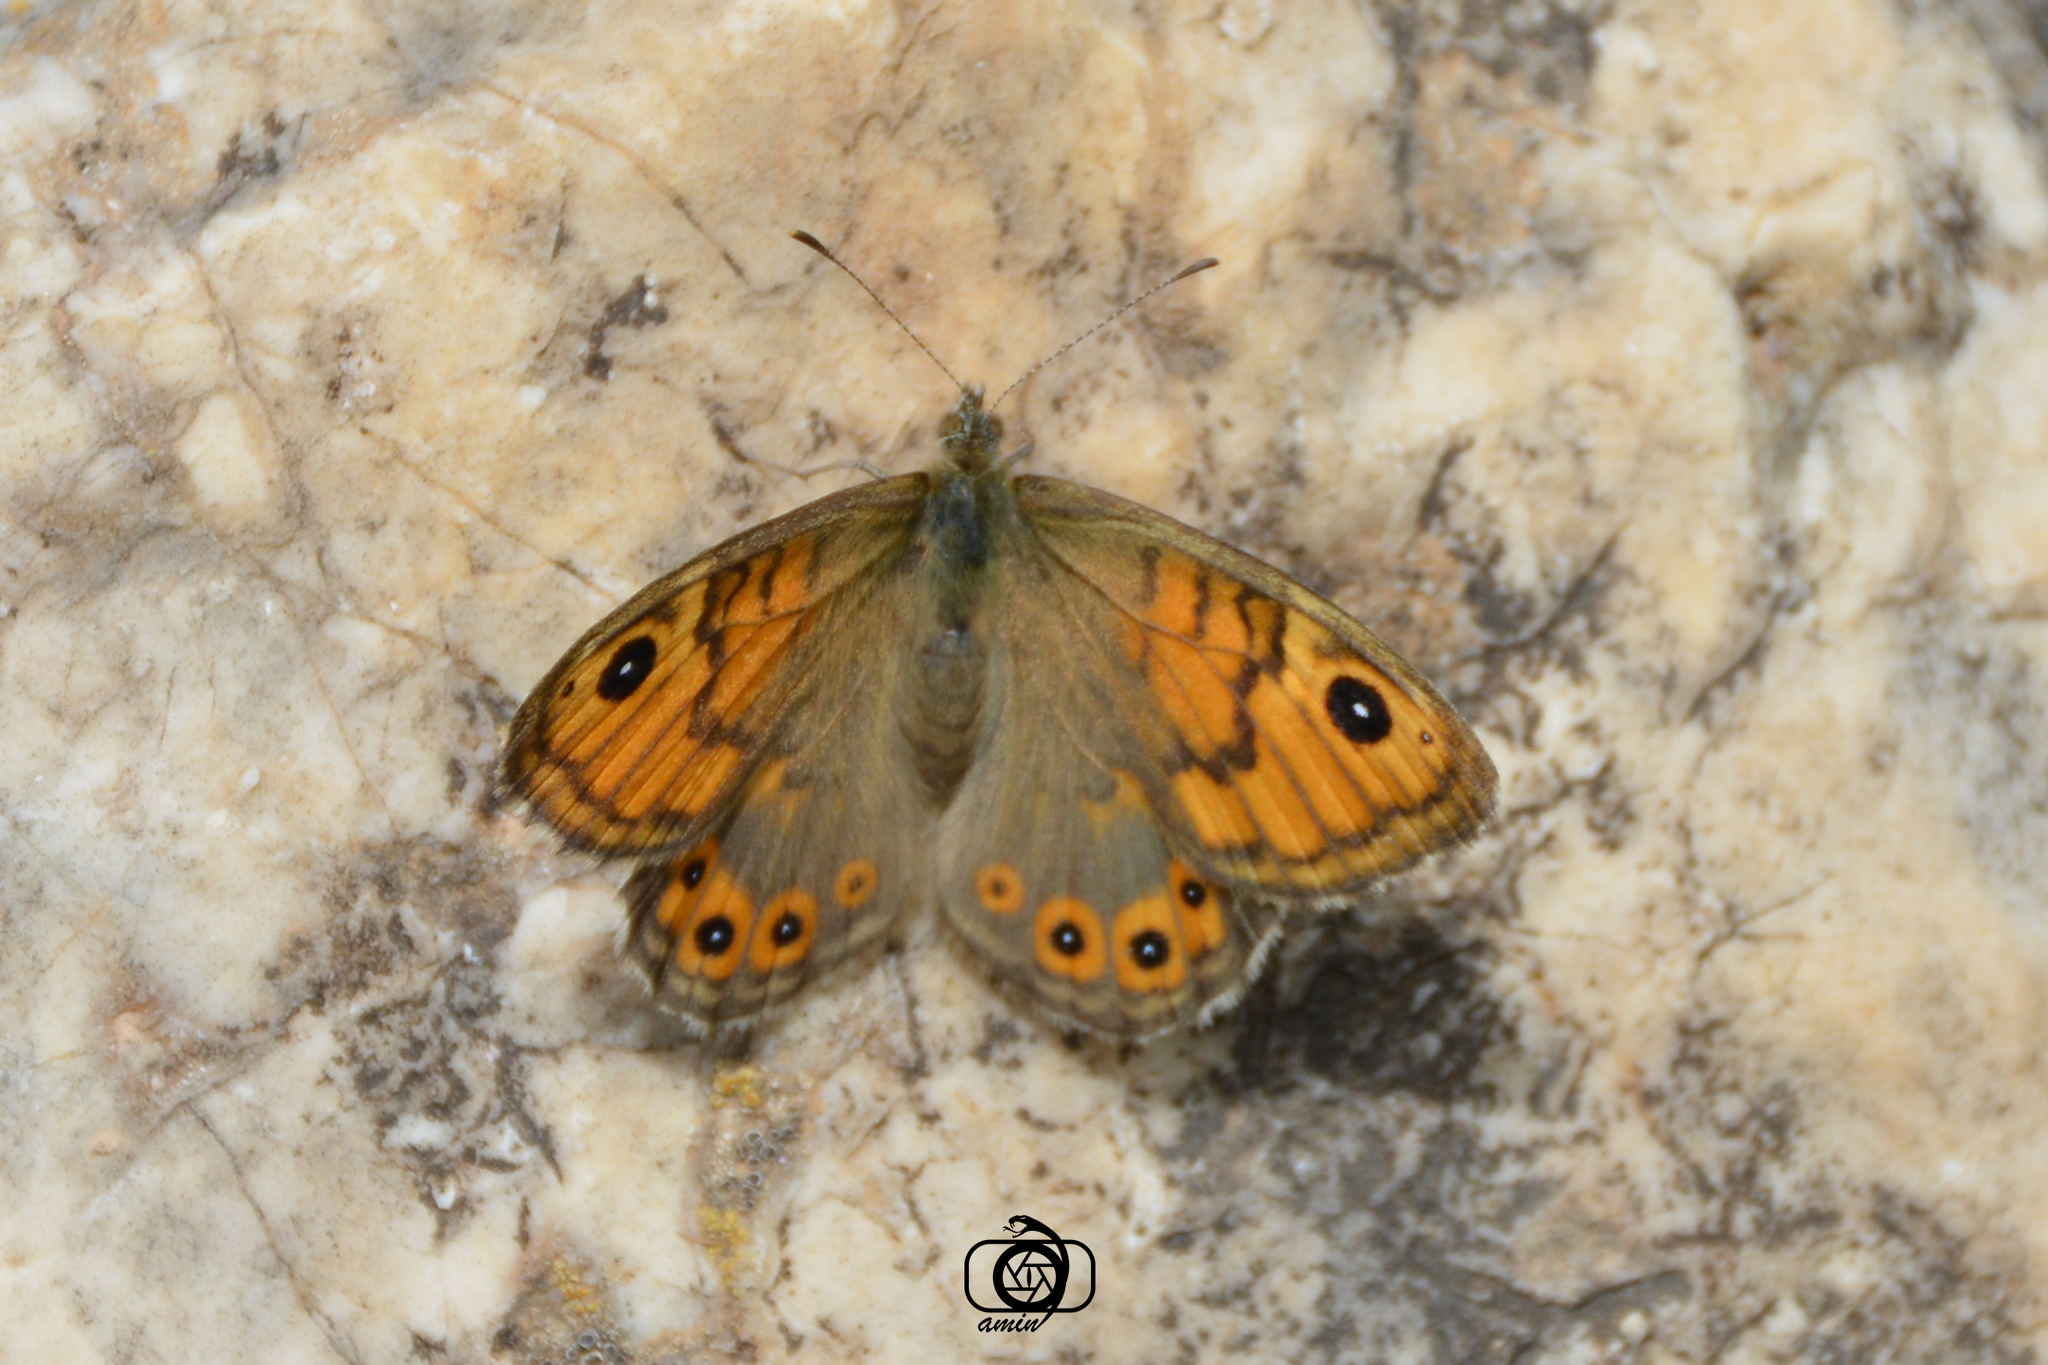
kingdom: Animalia
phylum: Arthropoda
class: Insecta
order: Lepidoptera
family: Nymphalidae
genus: Pararge
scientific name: Pararge Lasiommata megera
